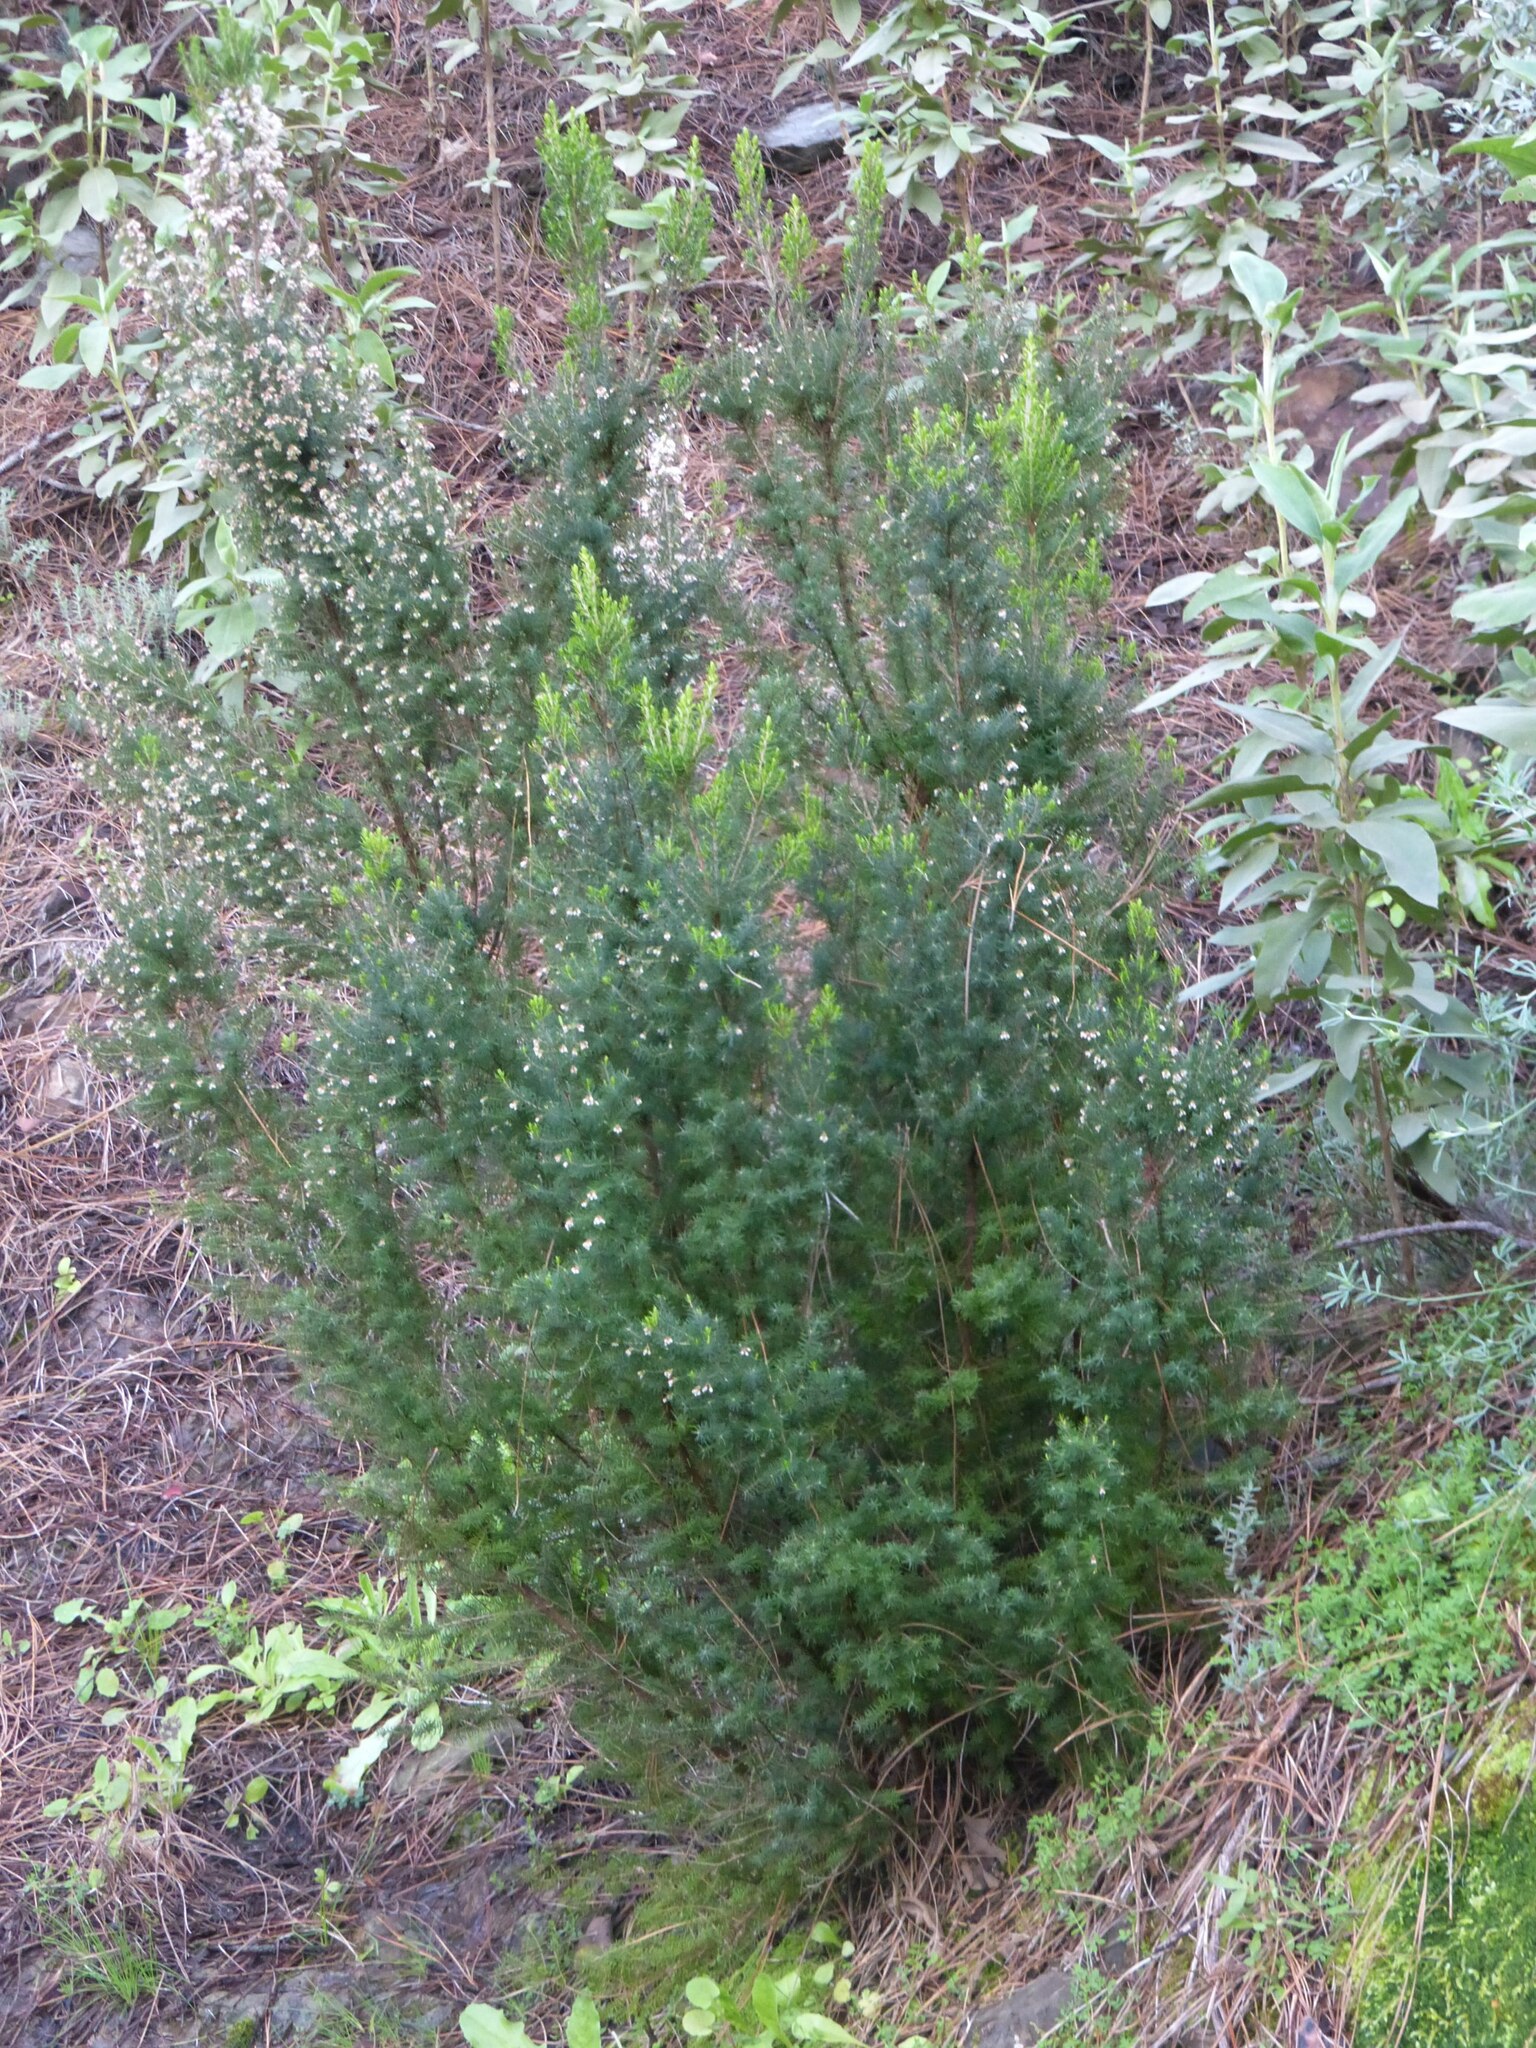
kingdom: Plantae
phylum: Tracheophyta
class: Magnoliopsida
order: Ericales
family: Ericaceae
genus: Erica
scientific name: Erica canariensis
